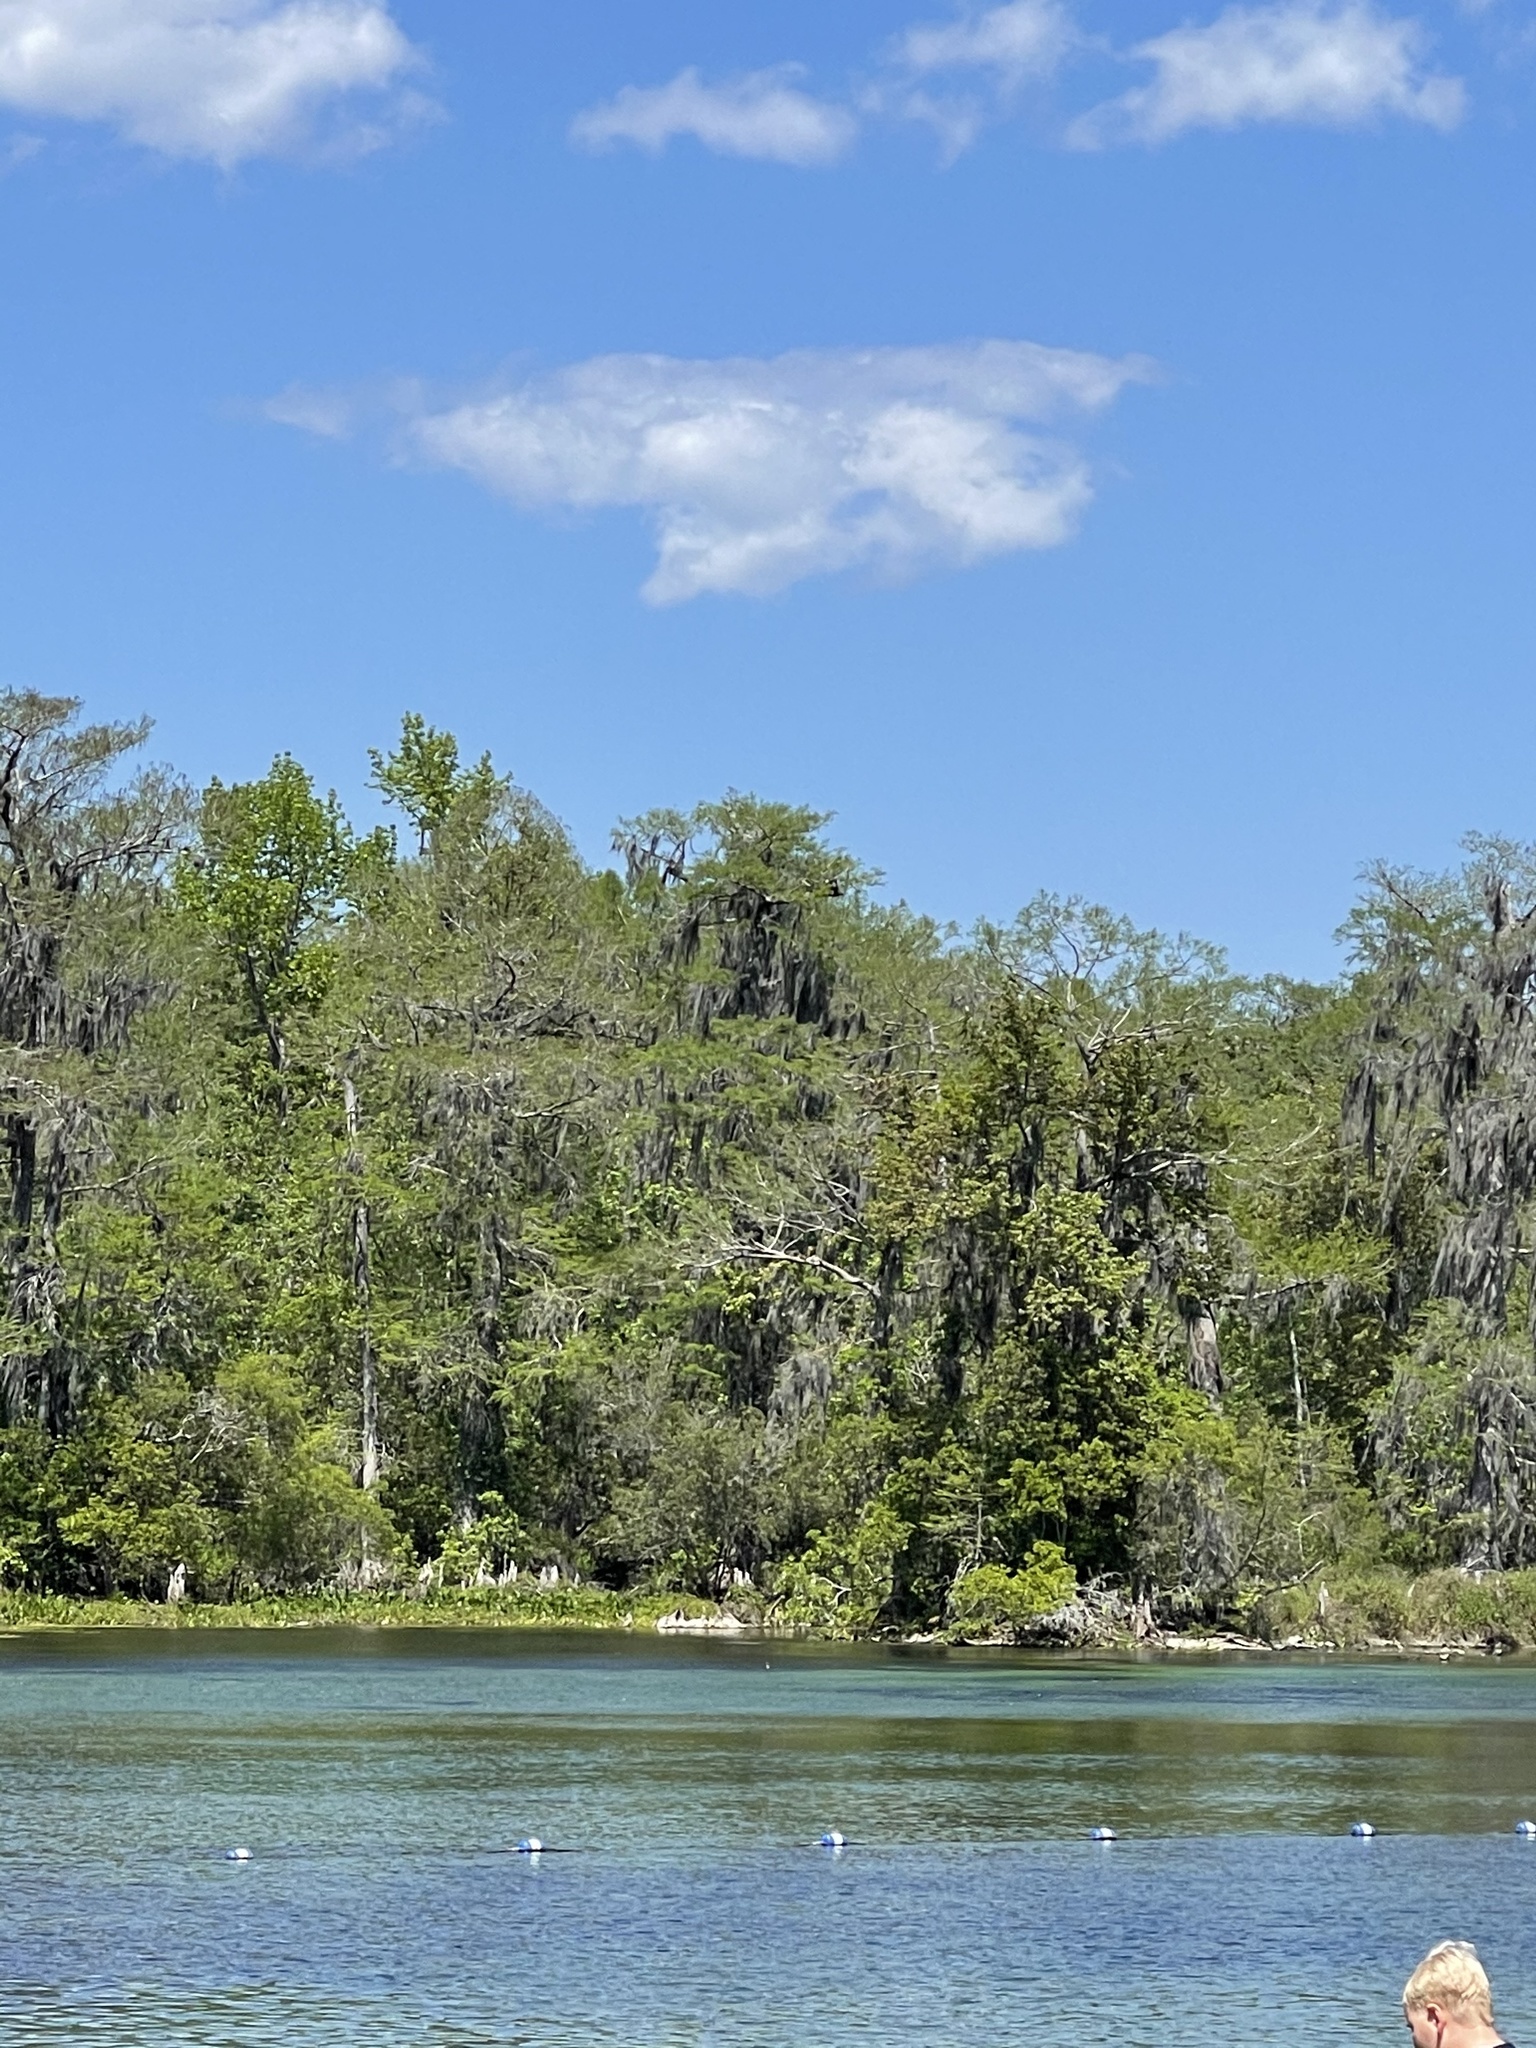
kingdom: Animalia
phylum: Chordata
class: Aves
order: Pelecaniformes
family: Threskiornithidae
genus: Platalea
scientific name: Platalea ajaja
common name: Roseate spoonbill
